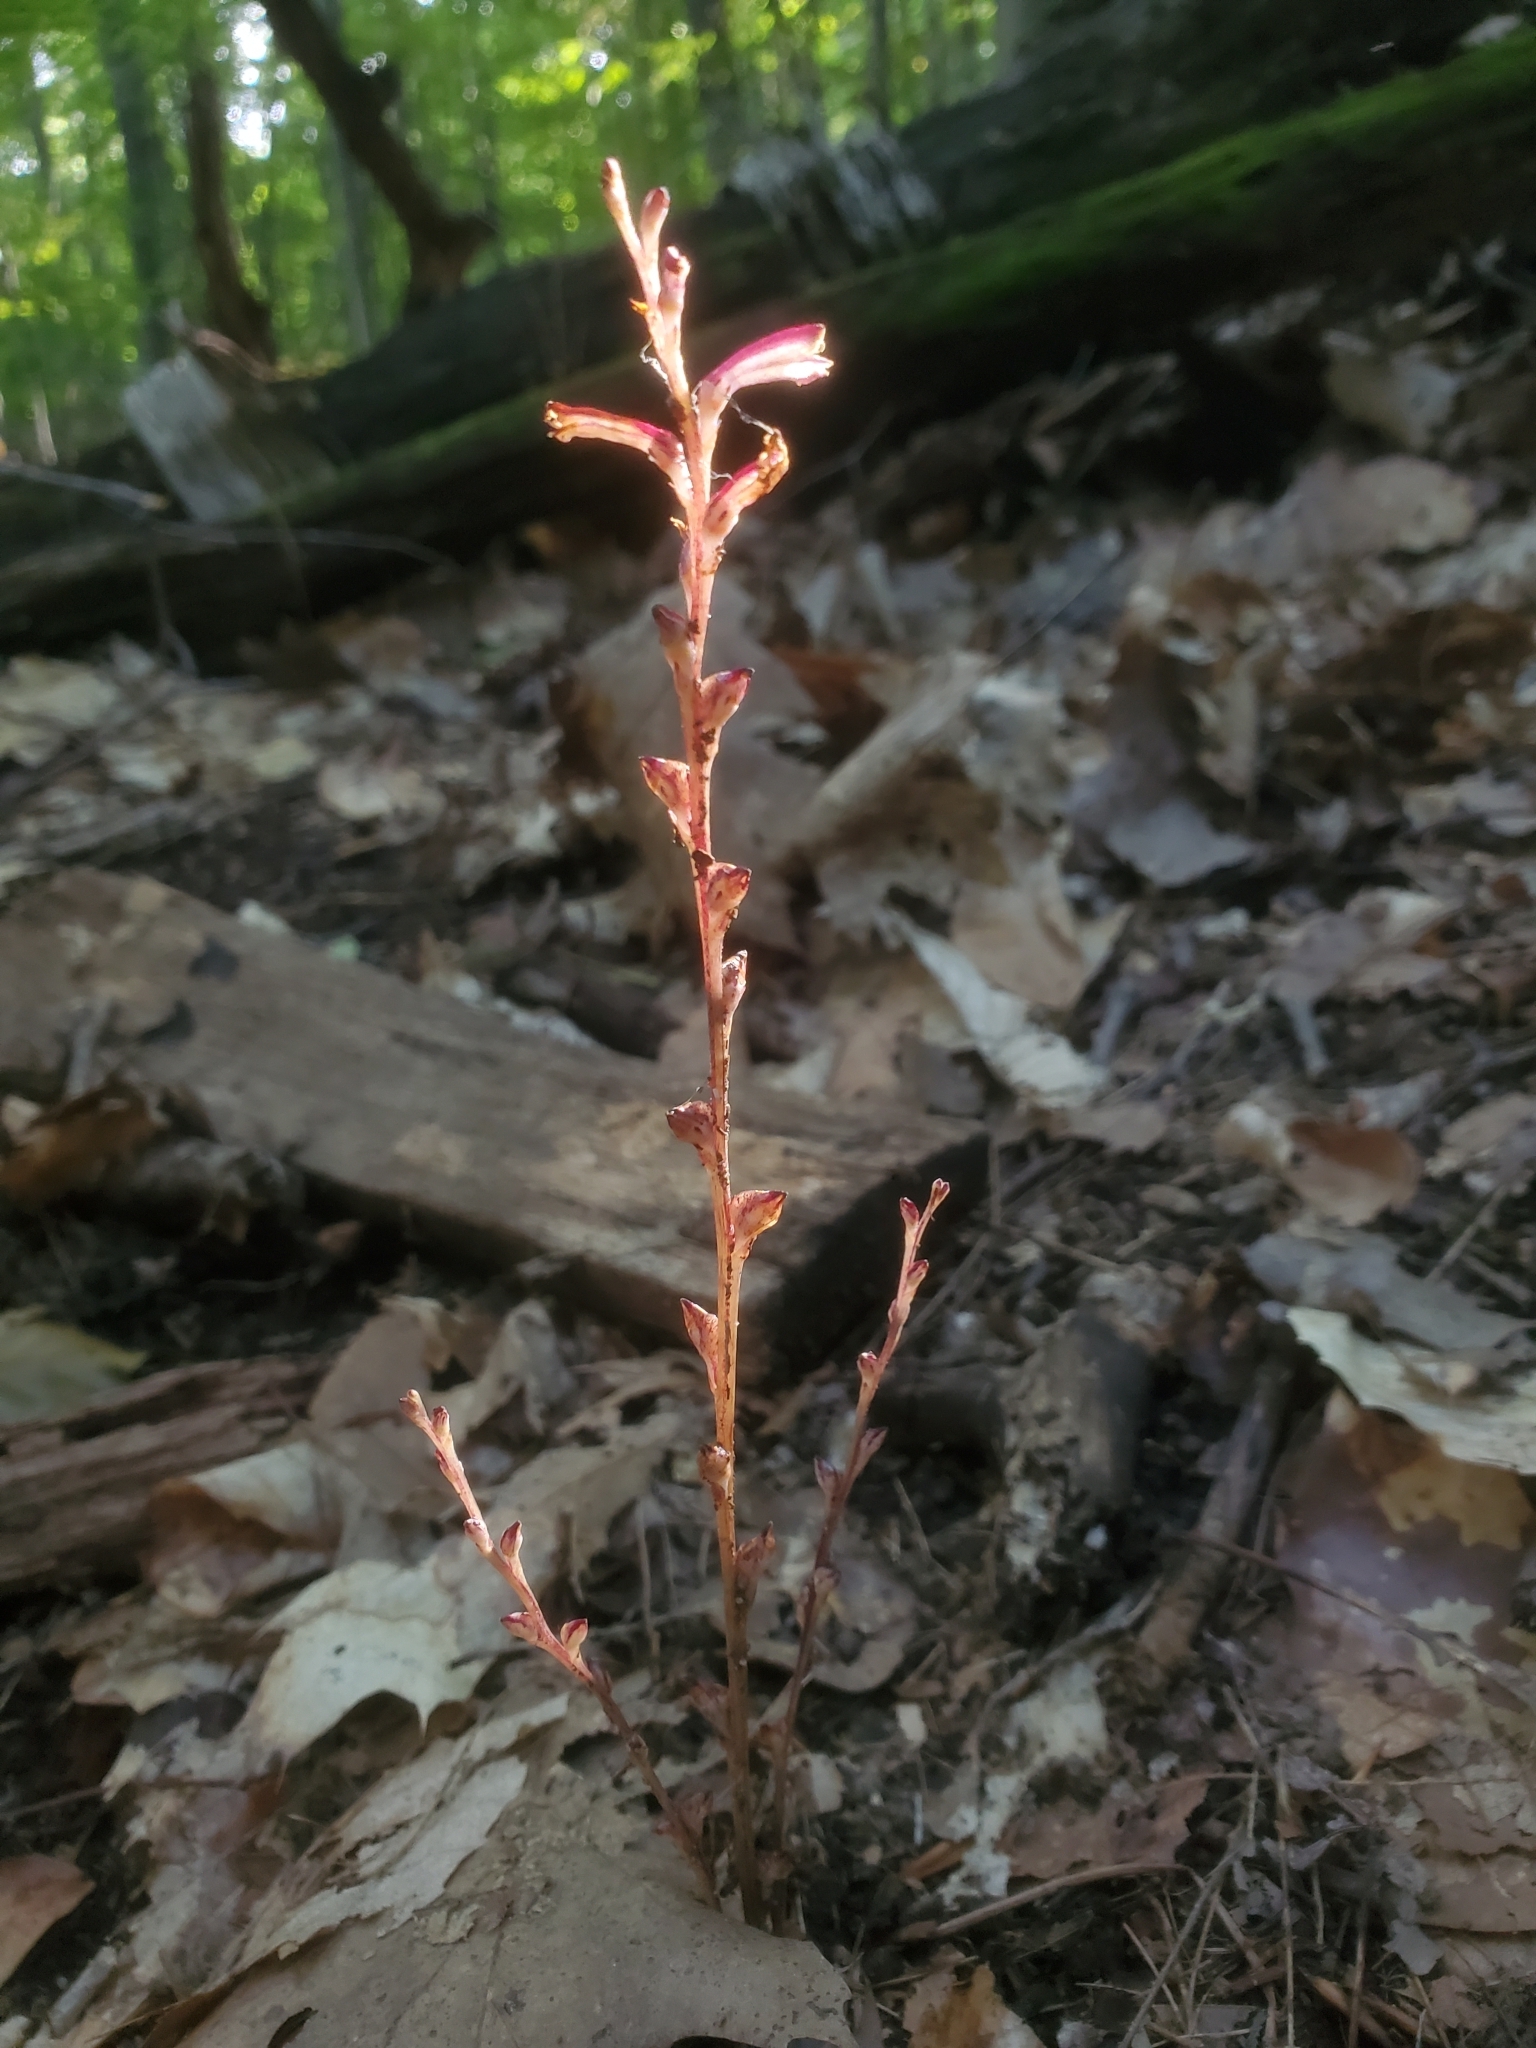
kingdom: Plantae
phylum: Tracheophyta
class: Magnoliopsida
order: Lamiales
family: Orobanchaceae
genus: Epifagus
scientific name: Epifagus virginiana
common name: Beechdrops
